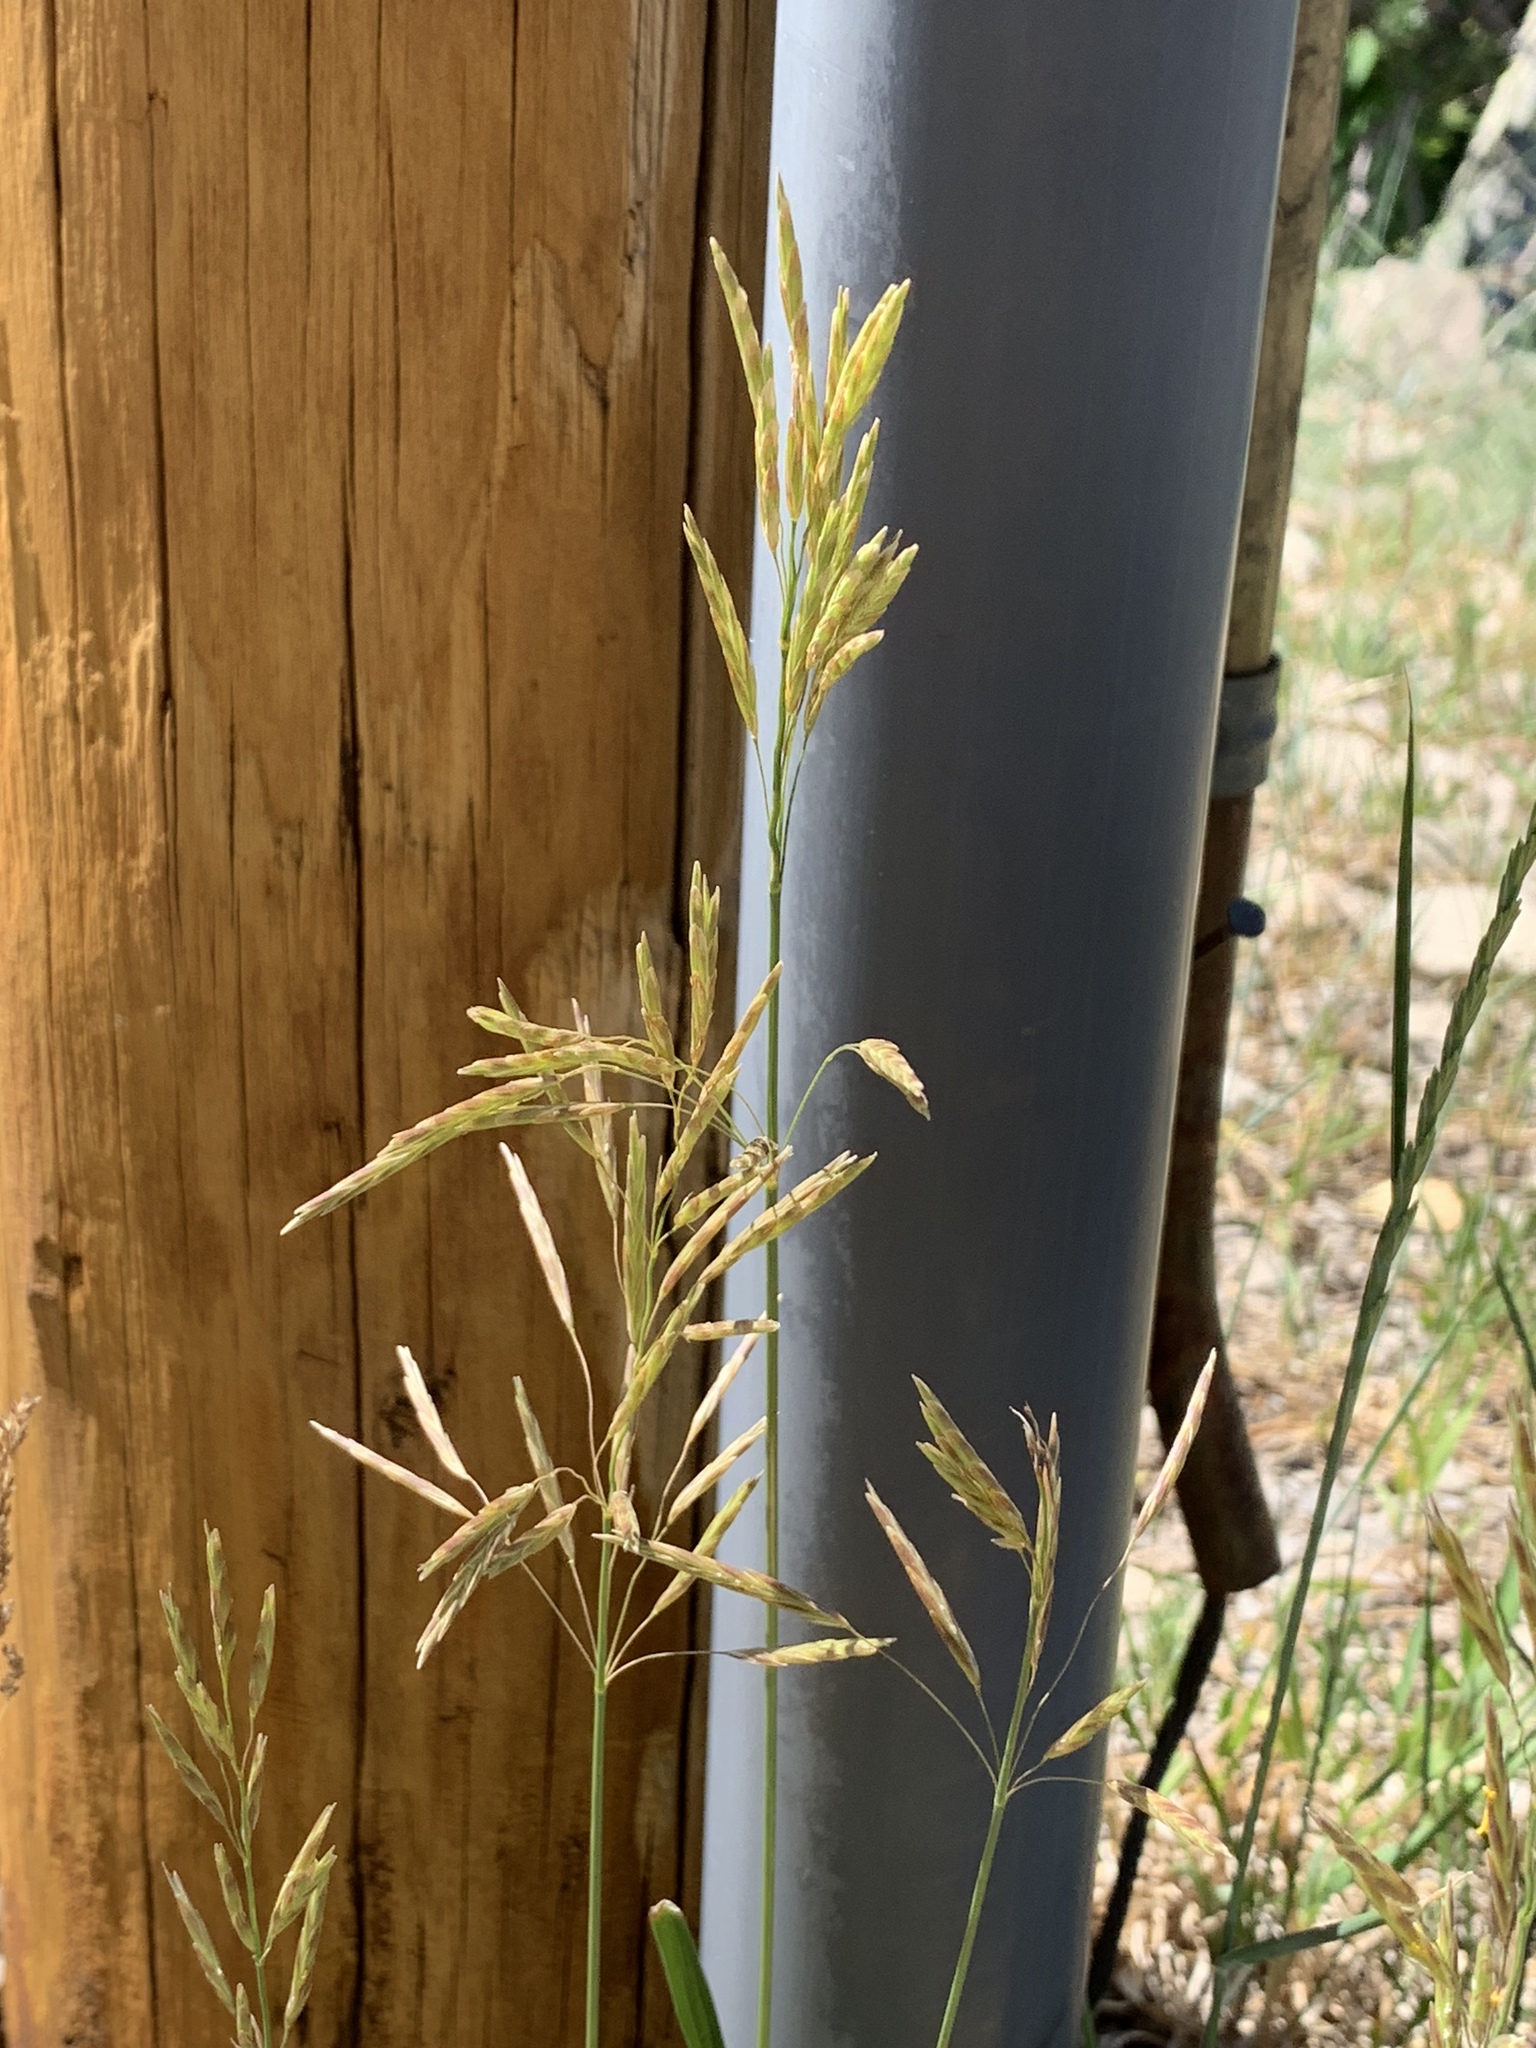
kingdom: Plantae
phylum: Tracheophyta
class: Liliopsida
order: Poales
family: Poaceae
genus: Bromus
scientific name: Bromus inermis
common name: Smooth brome
